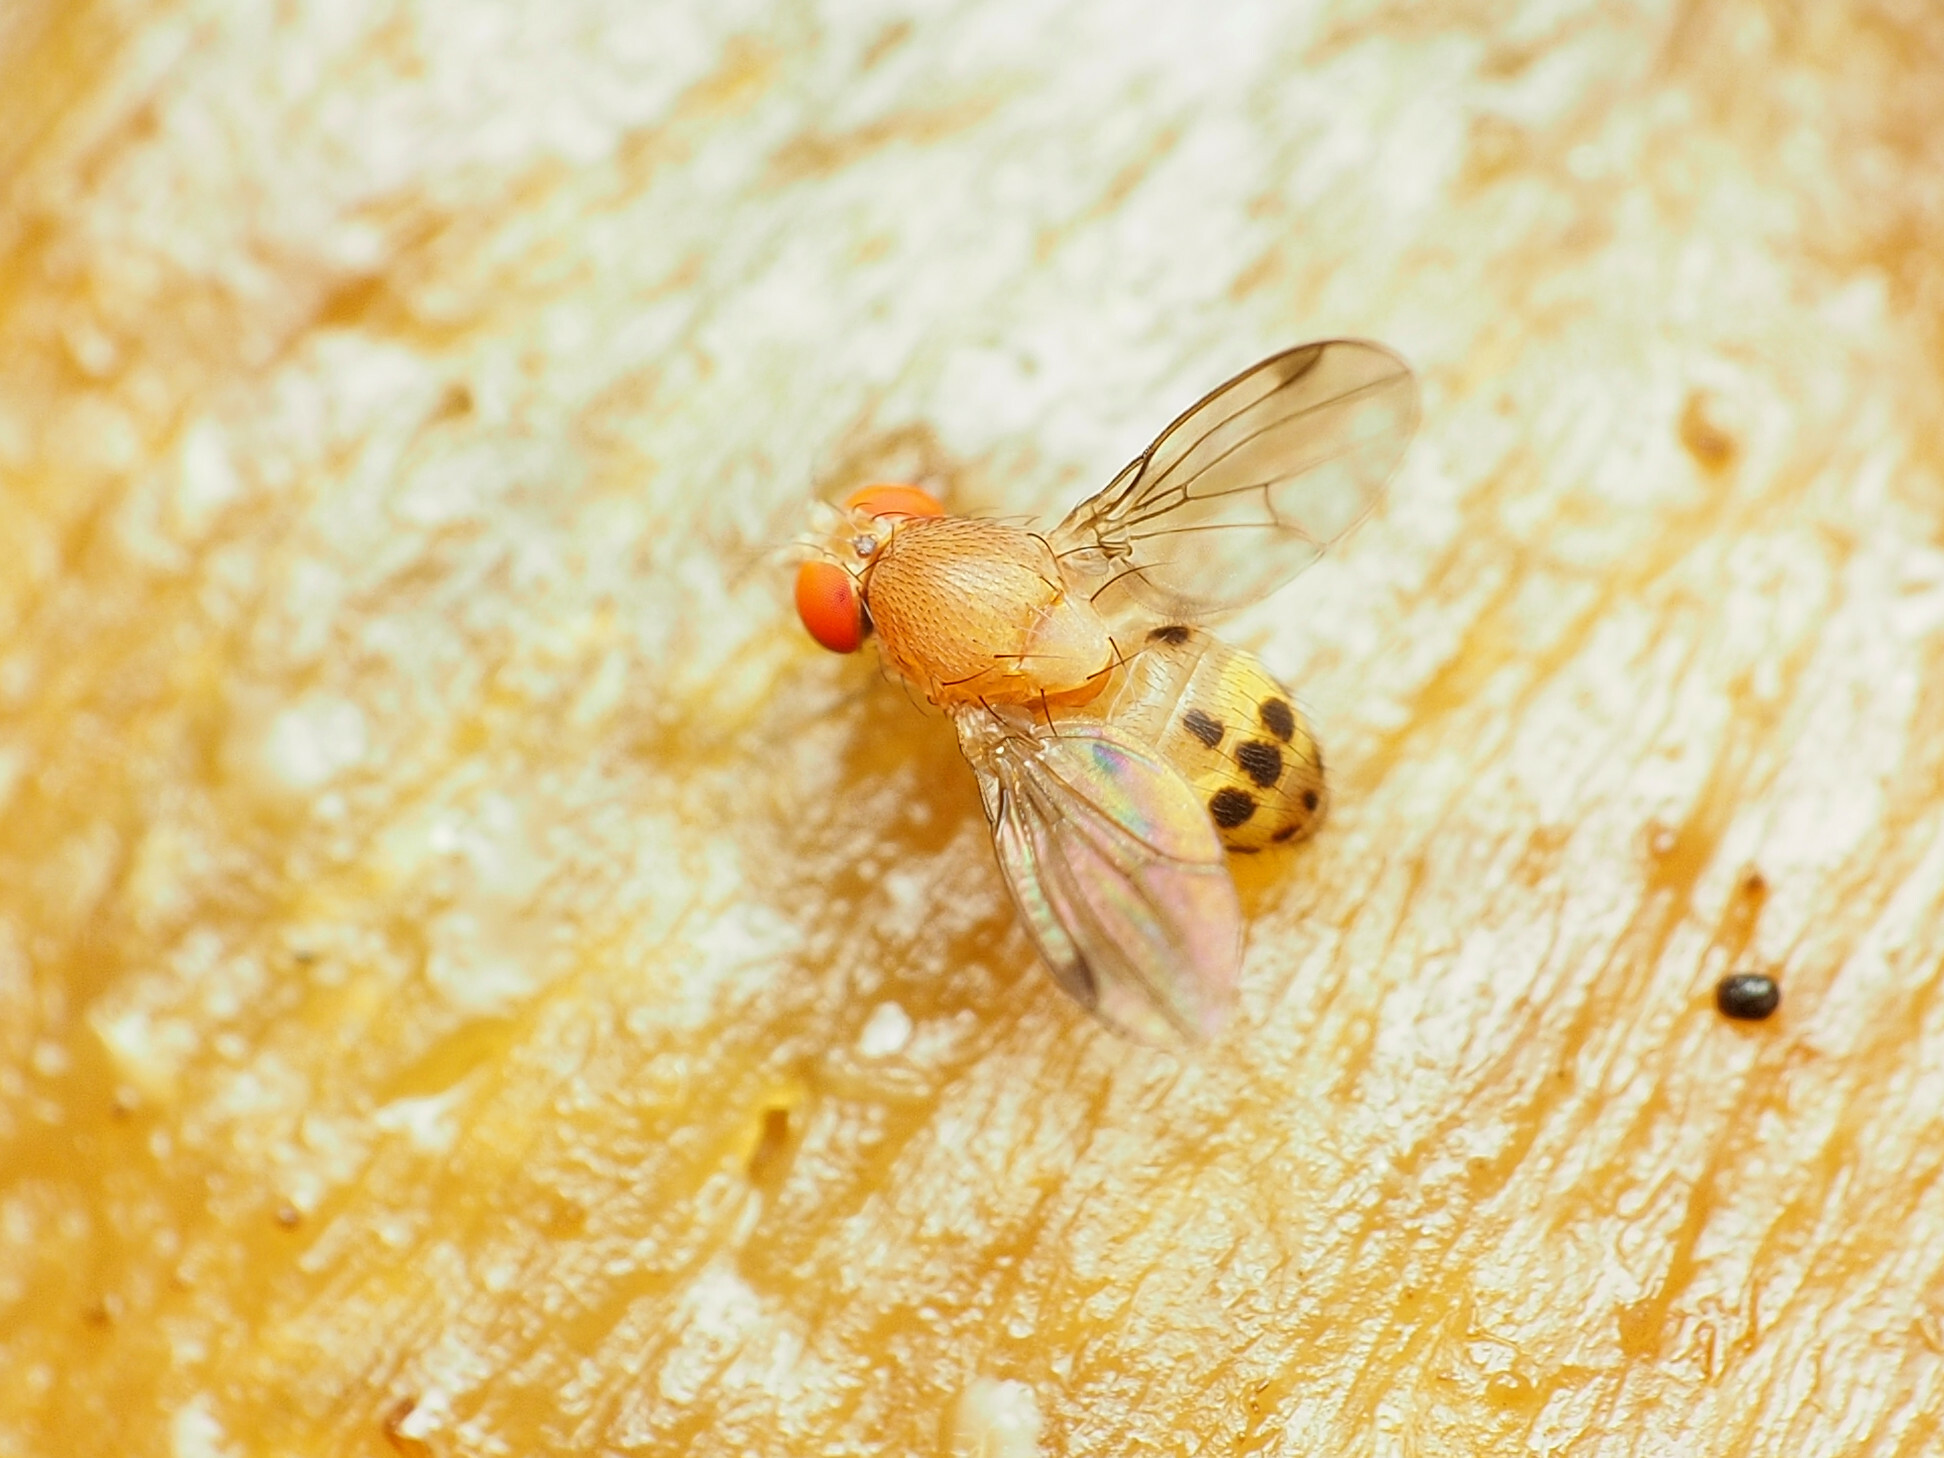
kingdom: Animalia
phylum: Arthropoda
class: Insecta
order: Diptera
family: Drosophilidae
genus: Leucophenga
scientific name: Leucophenga varia
